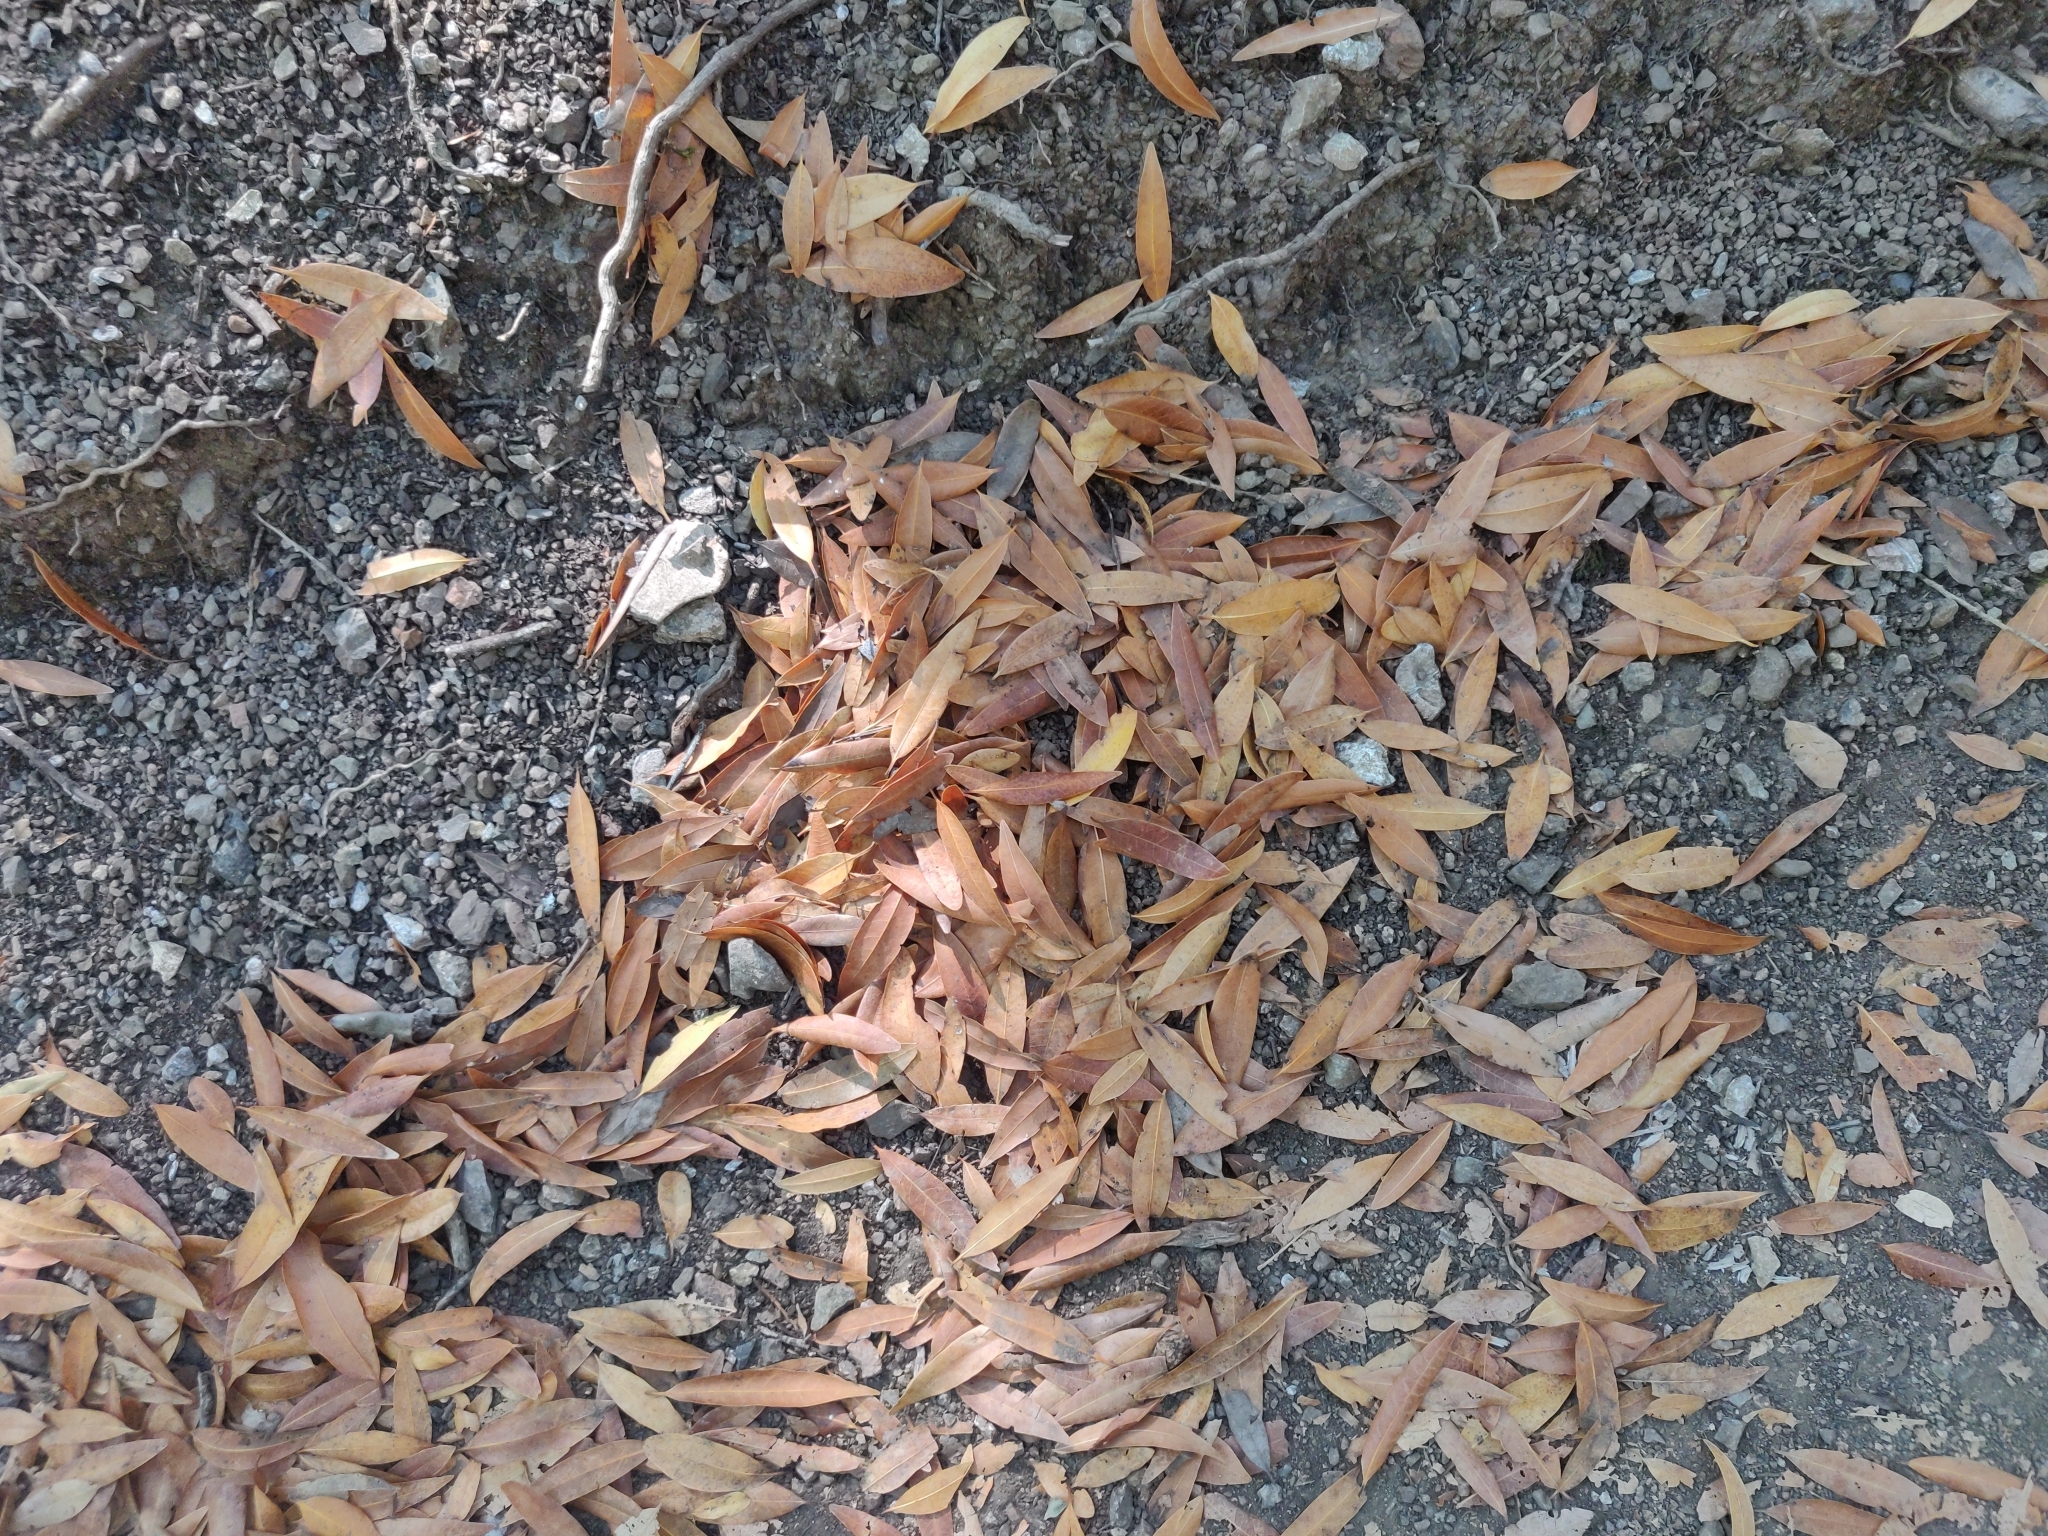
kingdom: Plantae
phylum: Tracheophyta
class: Magnoliopsida
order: Laurales
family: Lauraceae
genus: Umbellularia
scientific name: Umbellularia californica
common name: California bay
